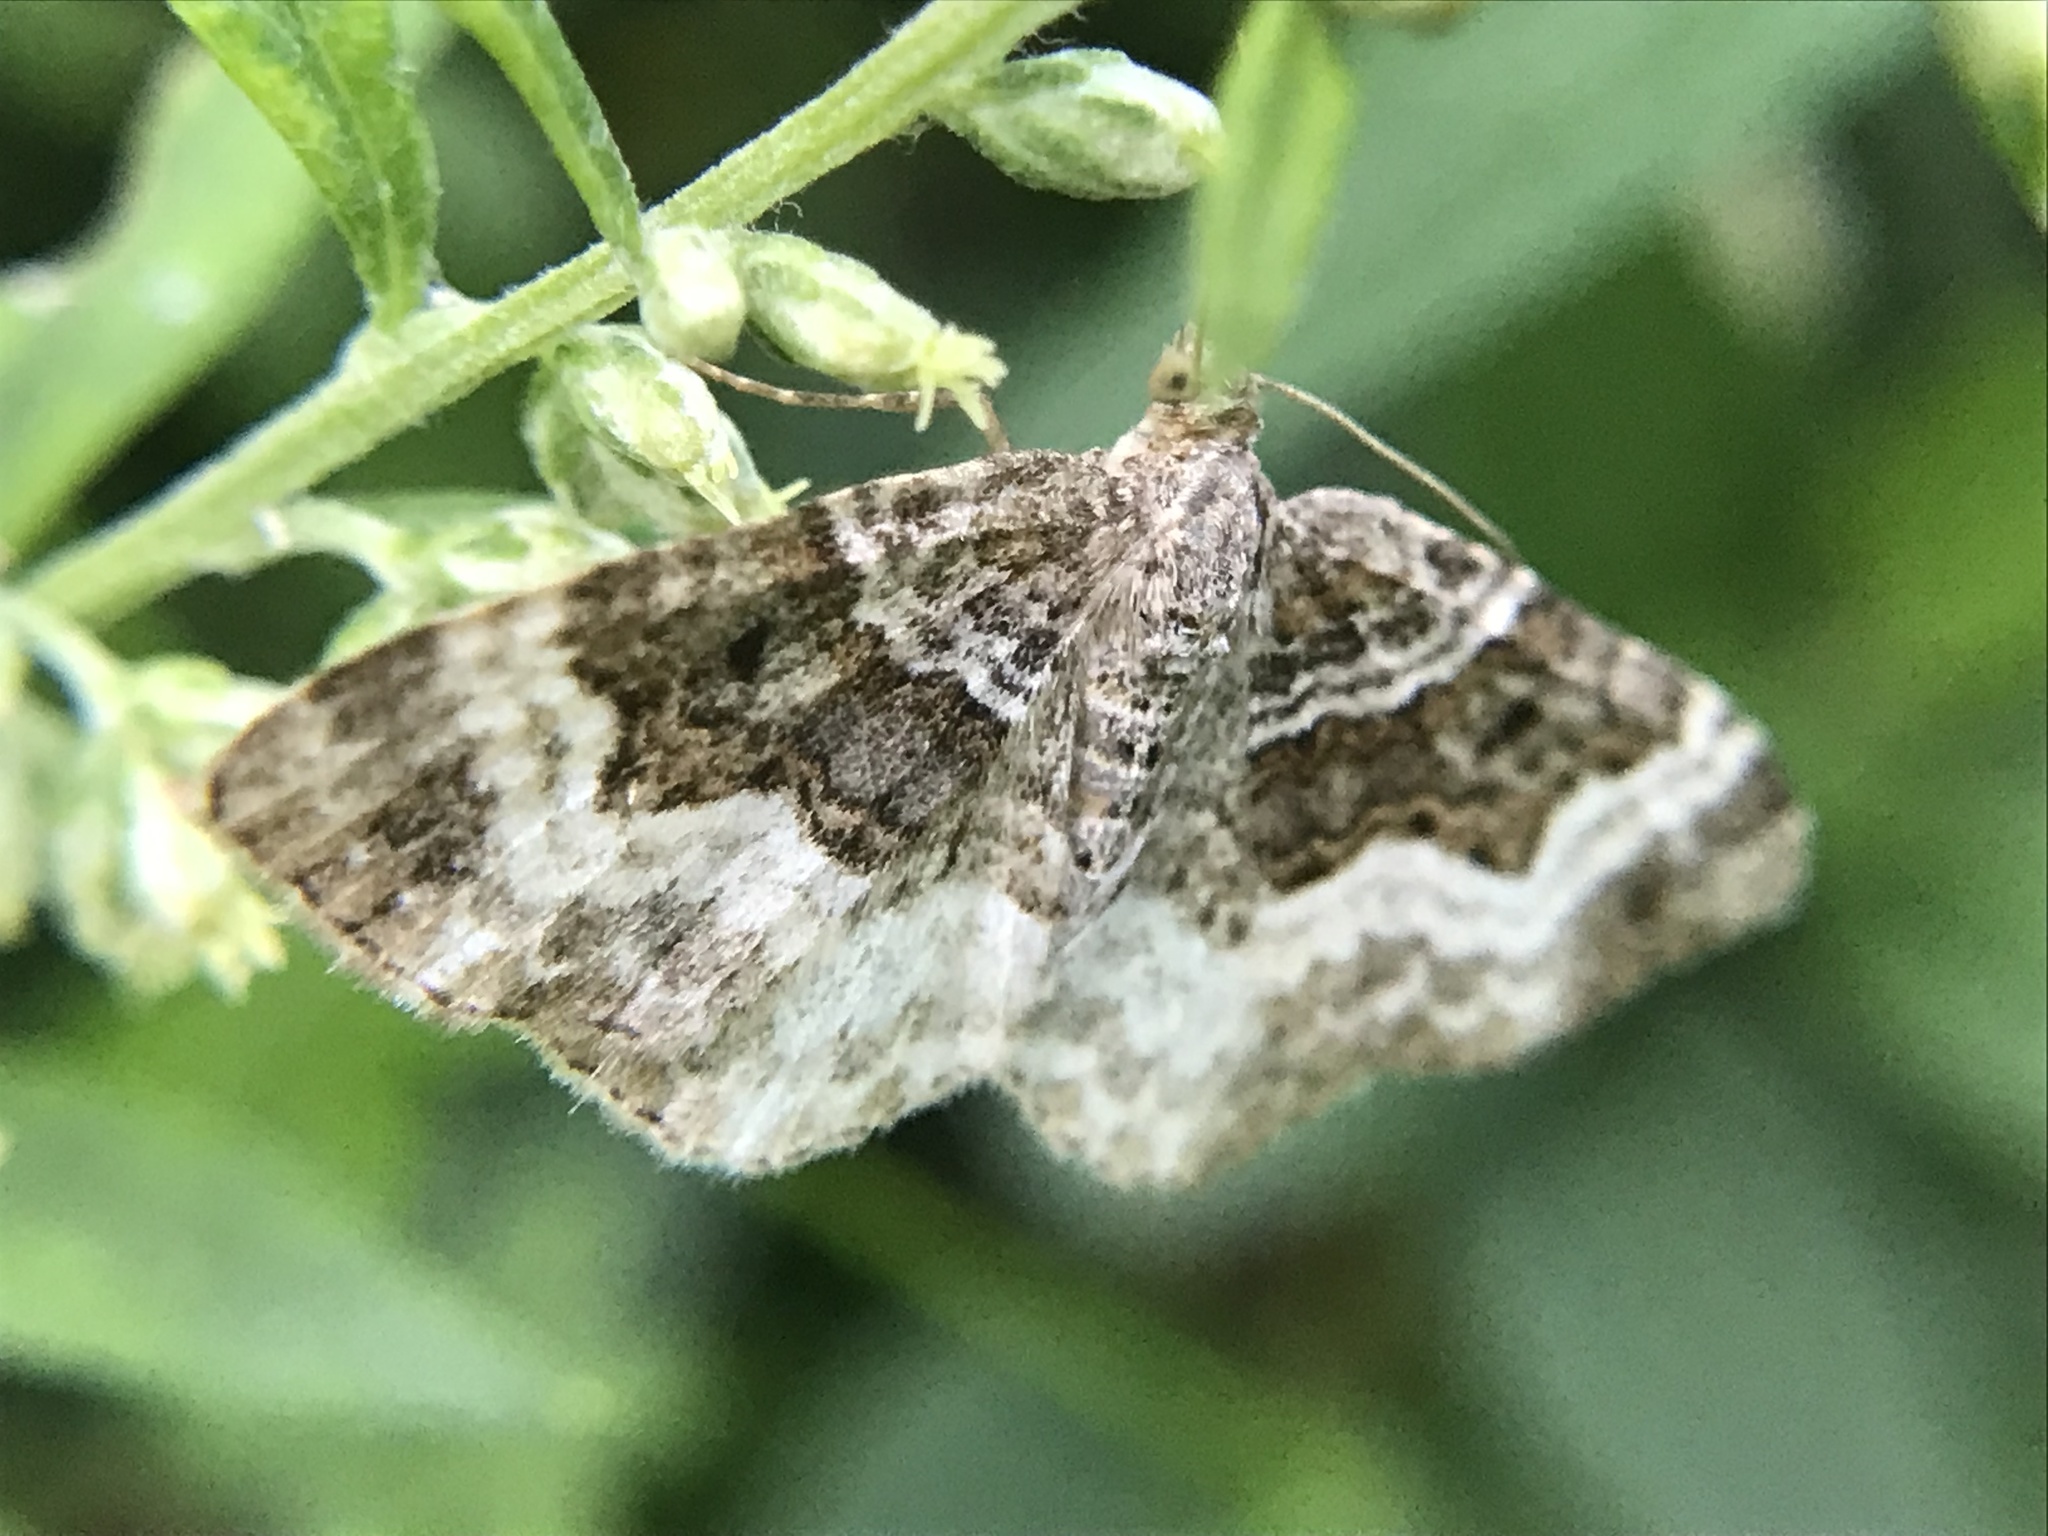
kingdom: Animalia
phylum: Arthropoda
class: Insecta
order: Lepidoptera
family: Geometridae
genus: Epirrhoe
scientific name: Epirrhoe alternata
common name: Common carpet
